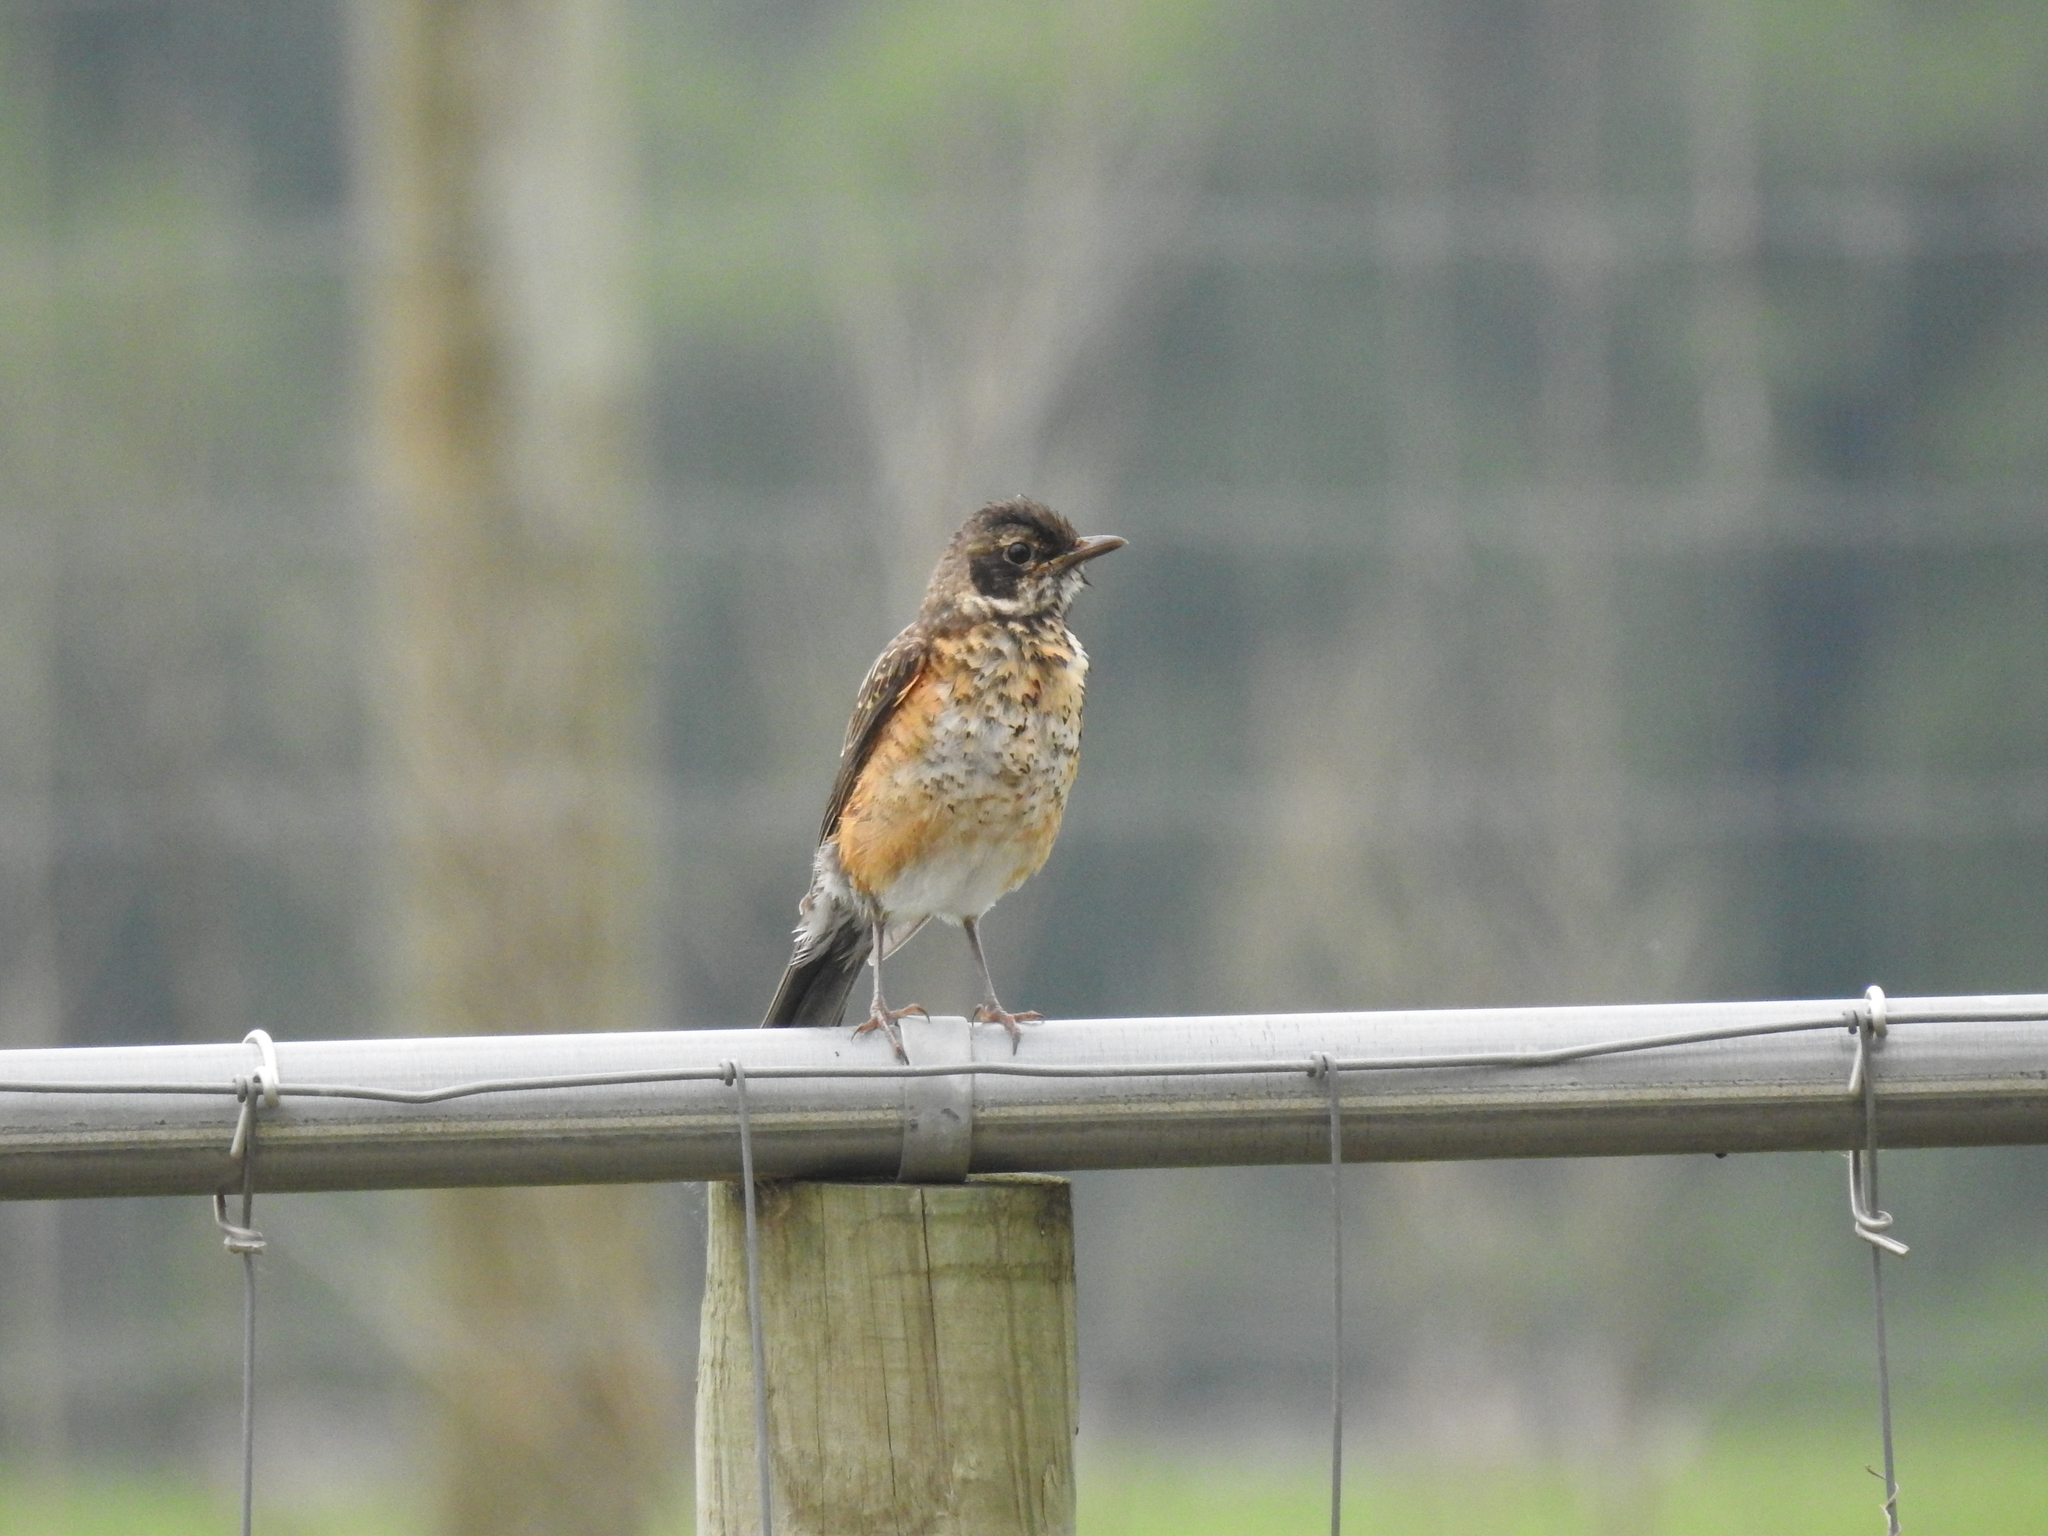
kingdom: Animalia
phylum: Chordata
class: Aves
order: Passeriformes
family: Turdidae
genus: Turdus
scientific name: Turdus migratorius
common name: American robin
